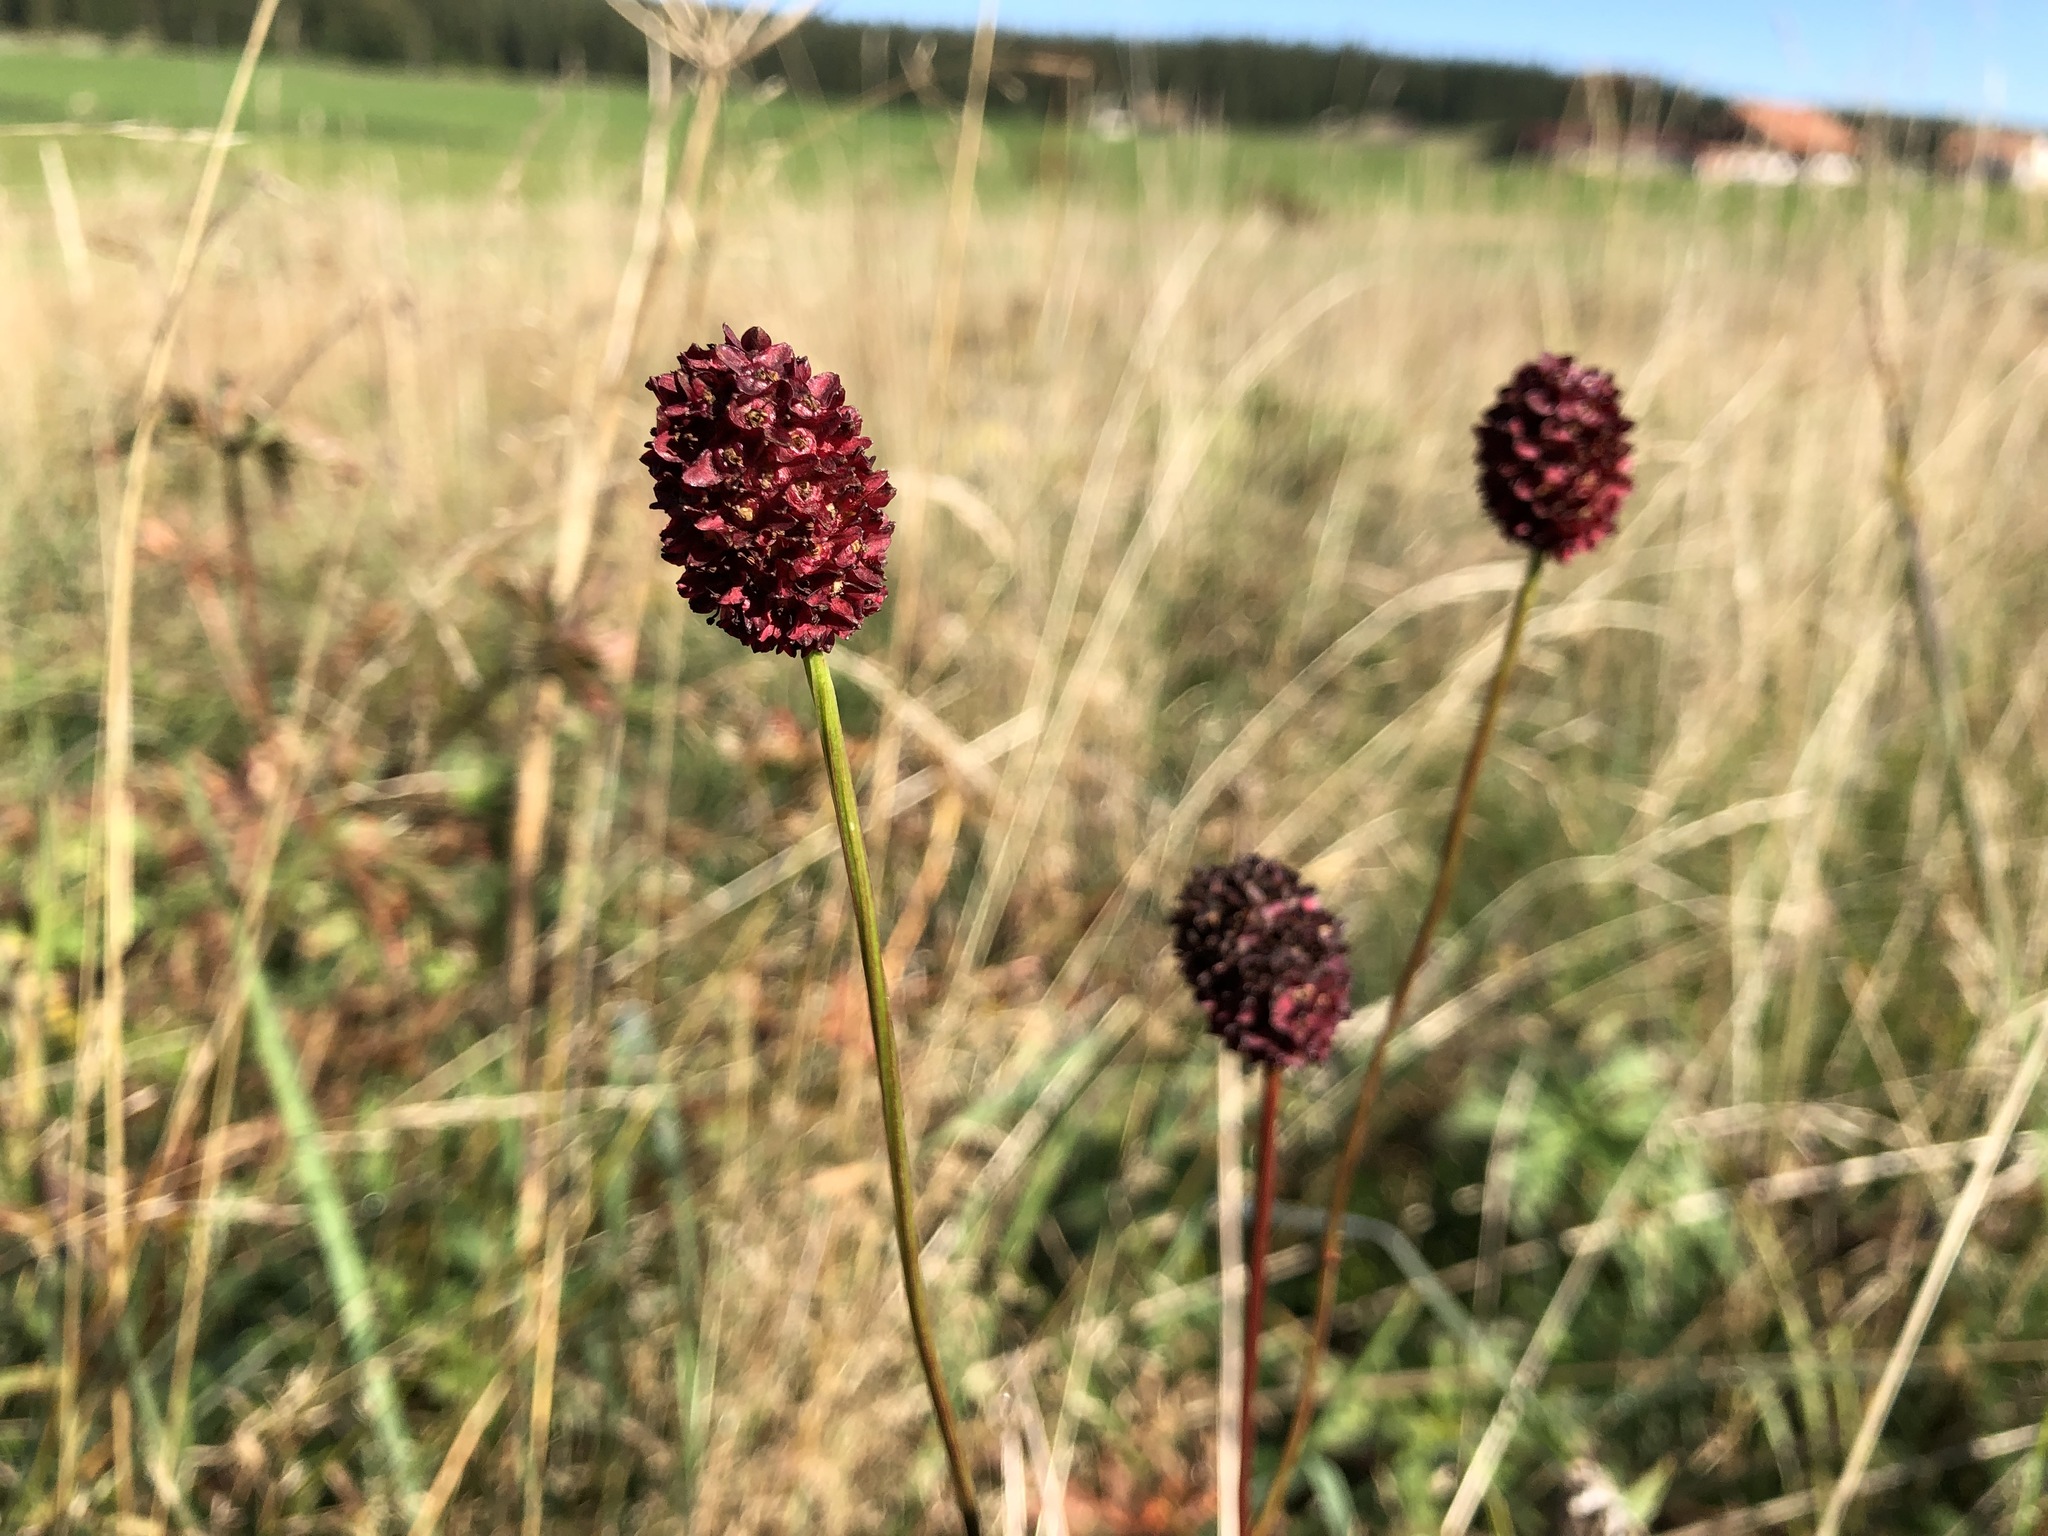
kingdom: Plantae
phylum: Tracheophyta
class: Magnoliopsida
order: Rosales
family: Rosaceae
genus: Sanguisorba
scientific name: Sanguisorba officinalis
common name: Great burnet
